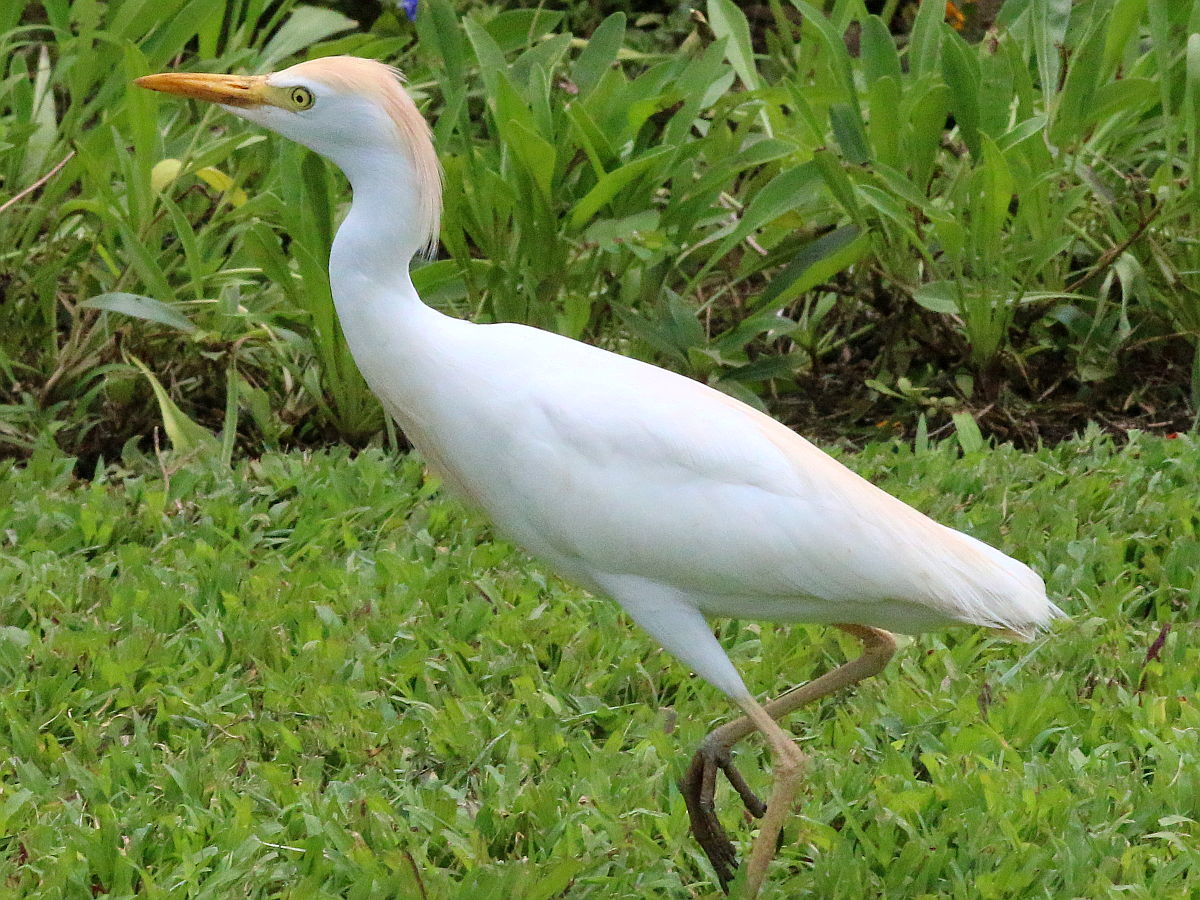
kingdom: Animalia
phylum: Chordata
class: Aves
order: Pelecaniformes
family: Ardeidae
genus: Bubulcus
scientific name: Bubulcus ibis
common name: Cattle egret
